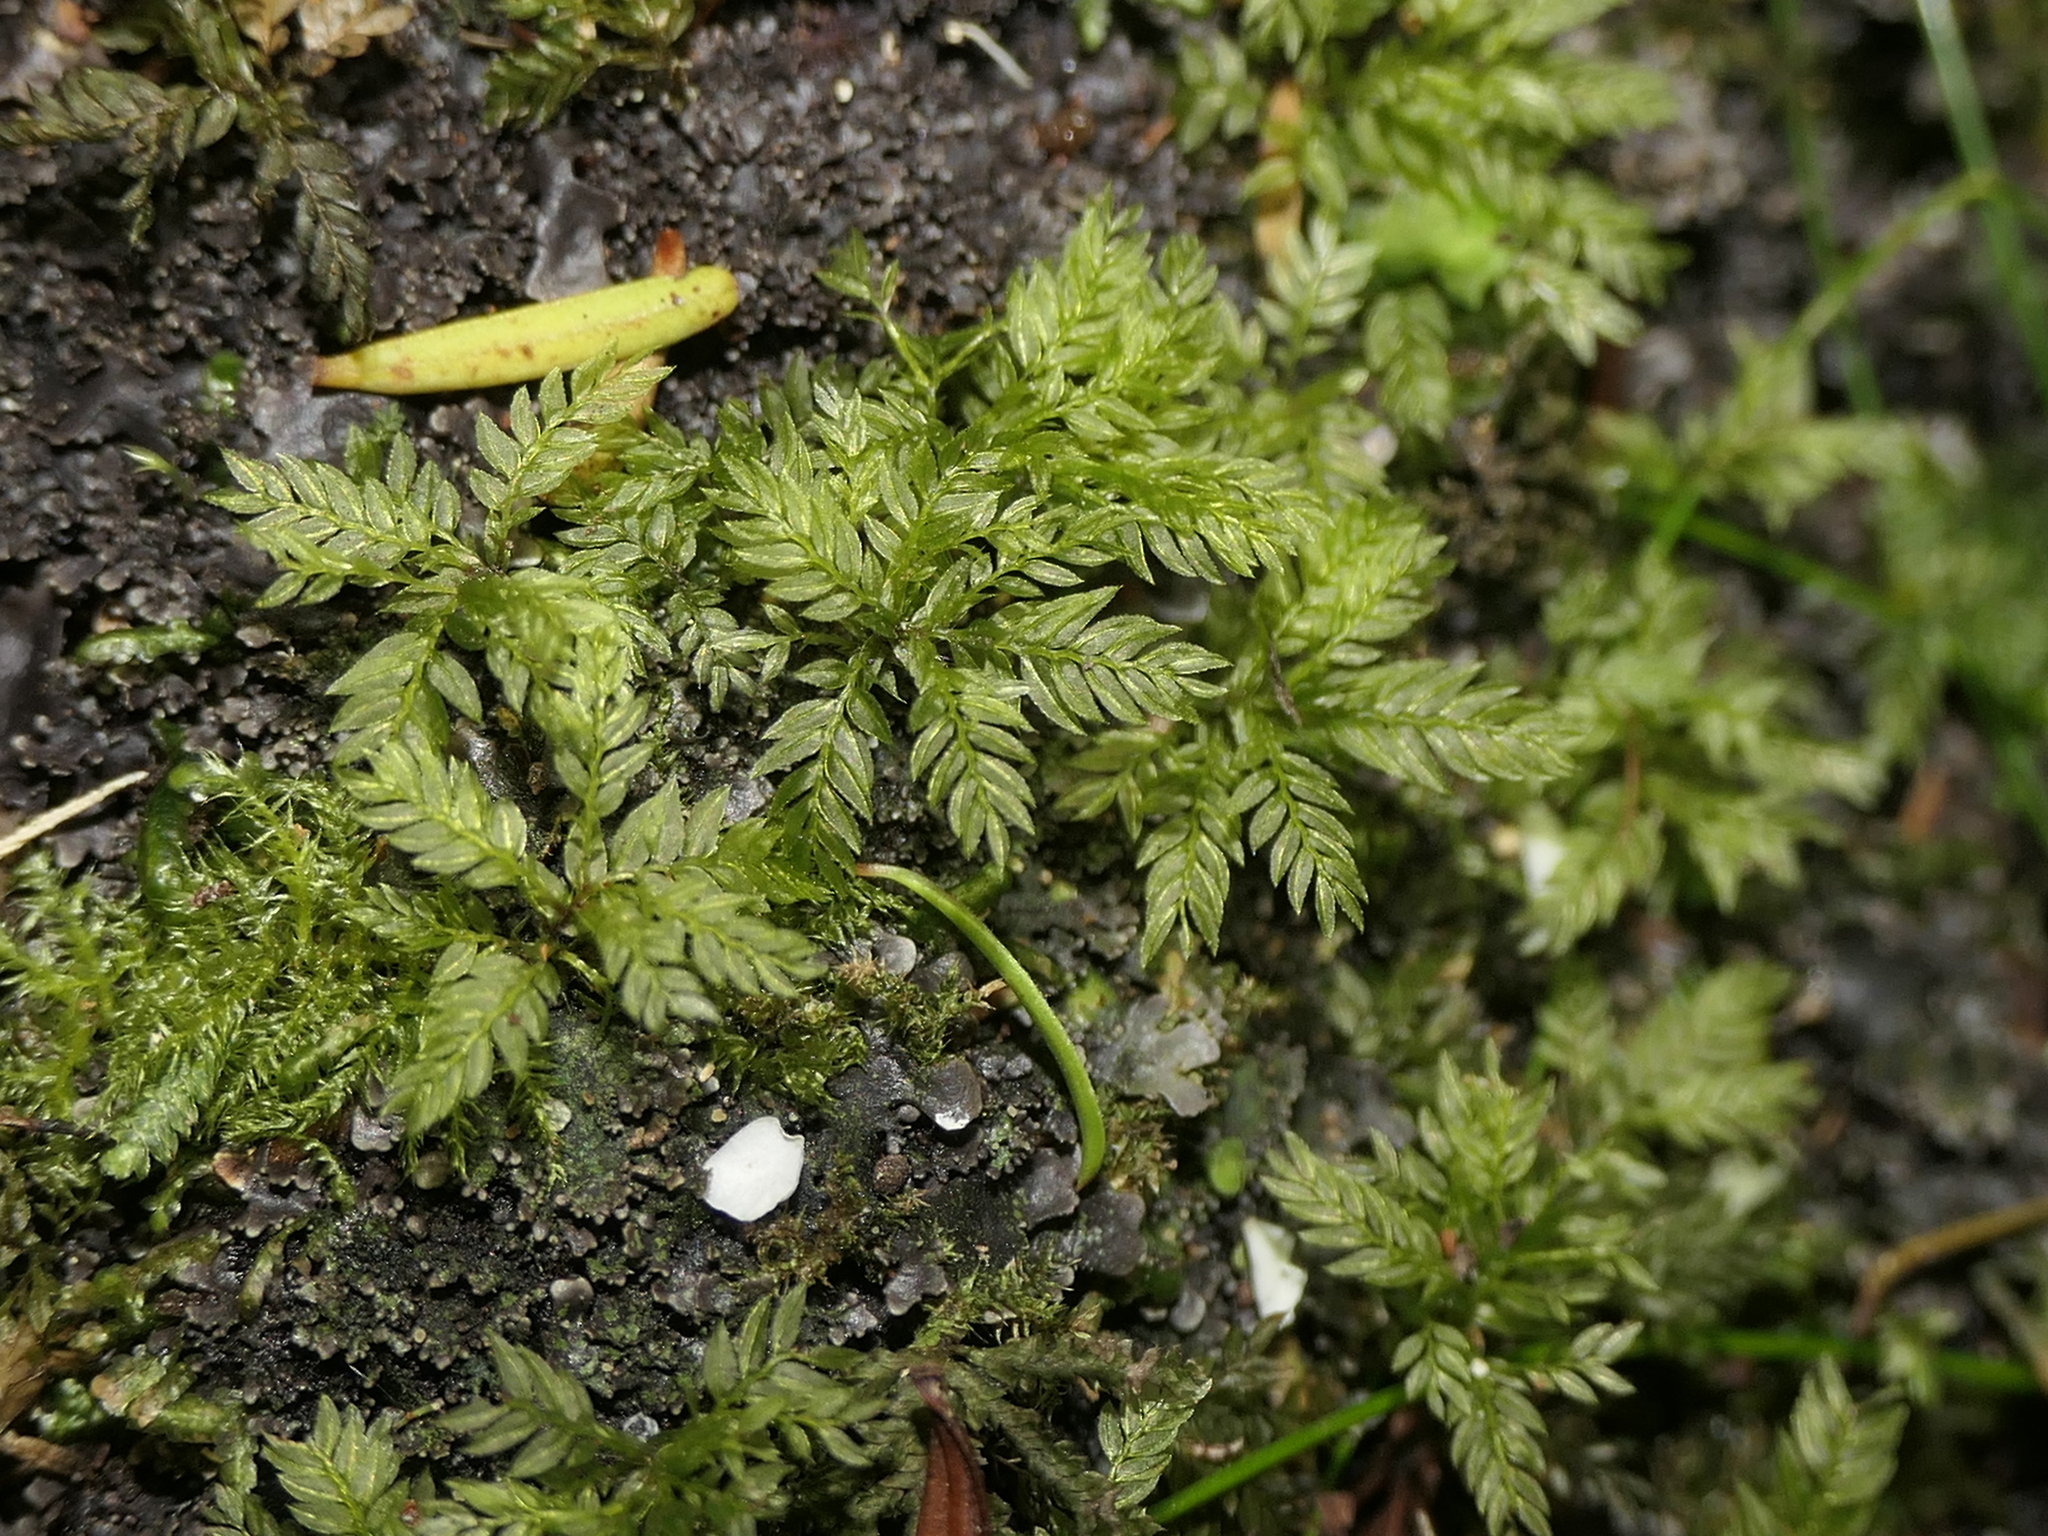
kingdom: Plantae
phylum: Bryophyta
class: Bryopsida
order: Aulacomniales
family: Aulacomniaceae
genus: Hymenodontopsis
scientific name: Hymenodontopsis bifaria
